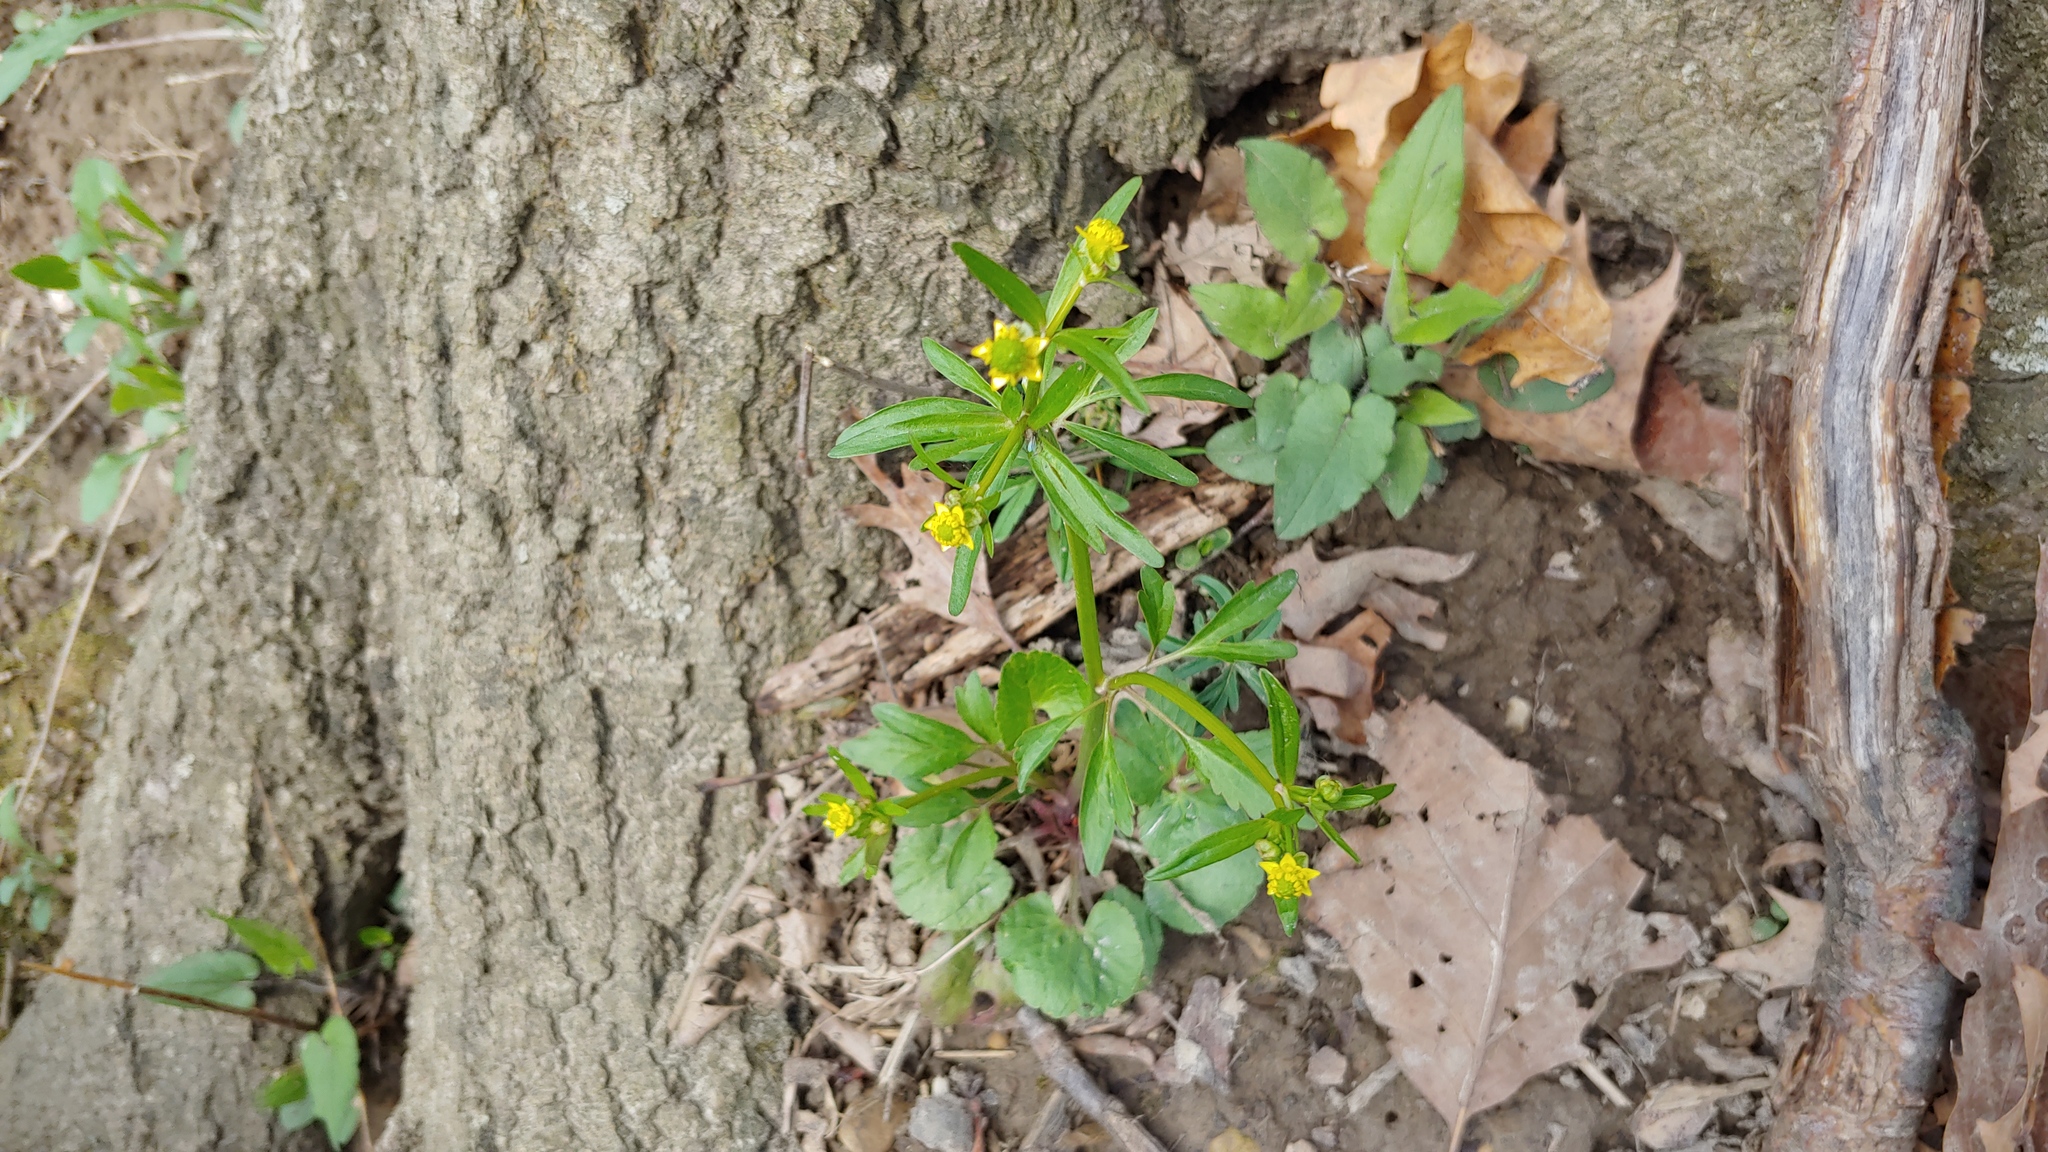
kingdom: Plantae
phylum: Tracheophyta
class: Magnoliopsida
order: Ranunculales
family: Ranunculaceae
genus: Ranunculus
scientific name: Ranunculus abortivus
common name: Early wood buttercup
